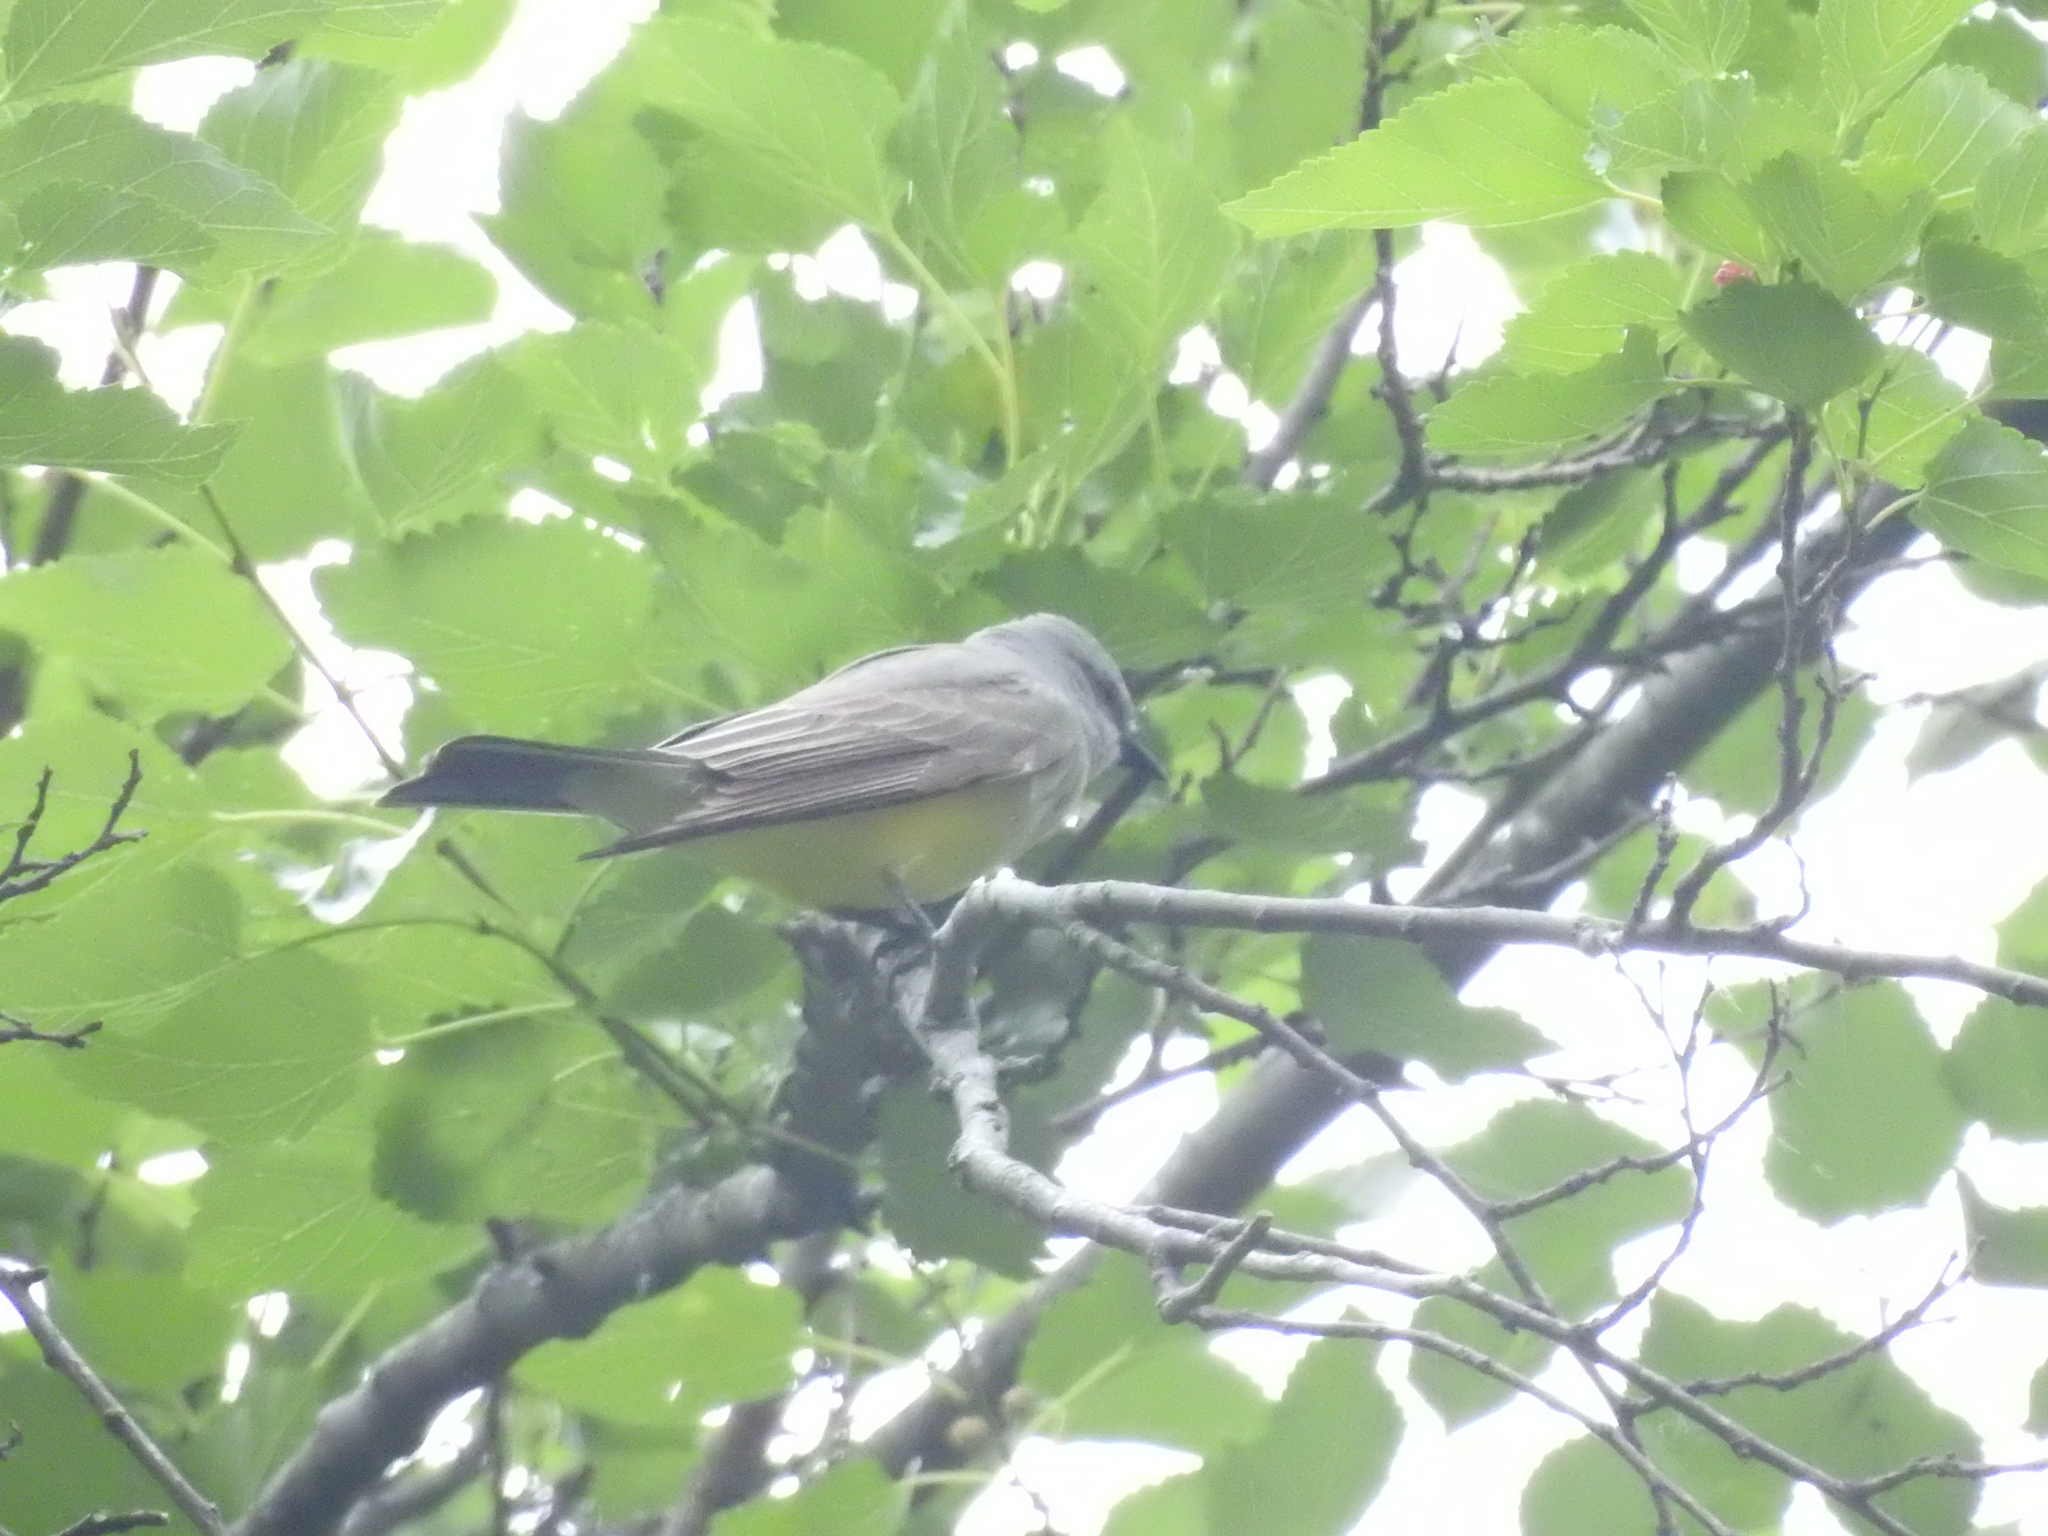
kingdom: Animalia
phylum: Chordata
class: Aves
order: Passeriformes
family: Tyrannidae
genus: Tyrannus
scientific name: Tyrannus verticalis
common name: Western kingbird
